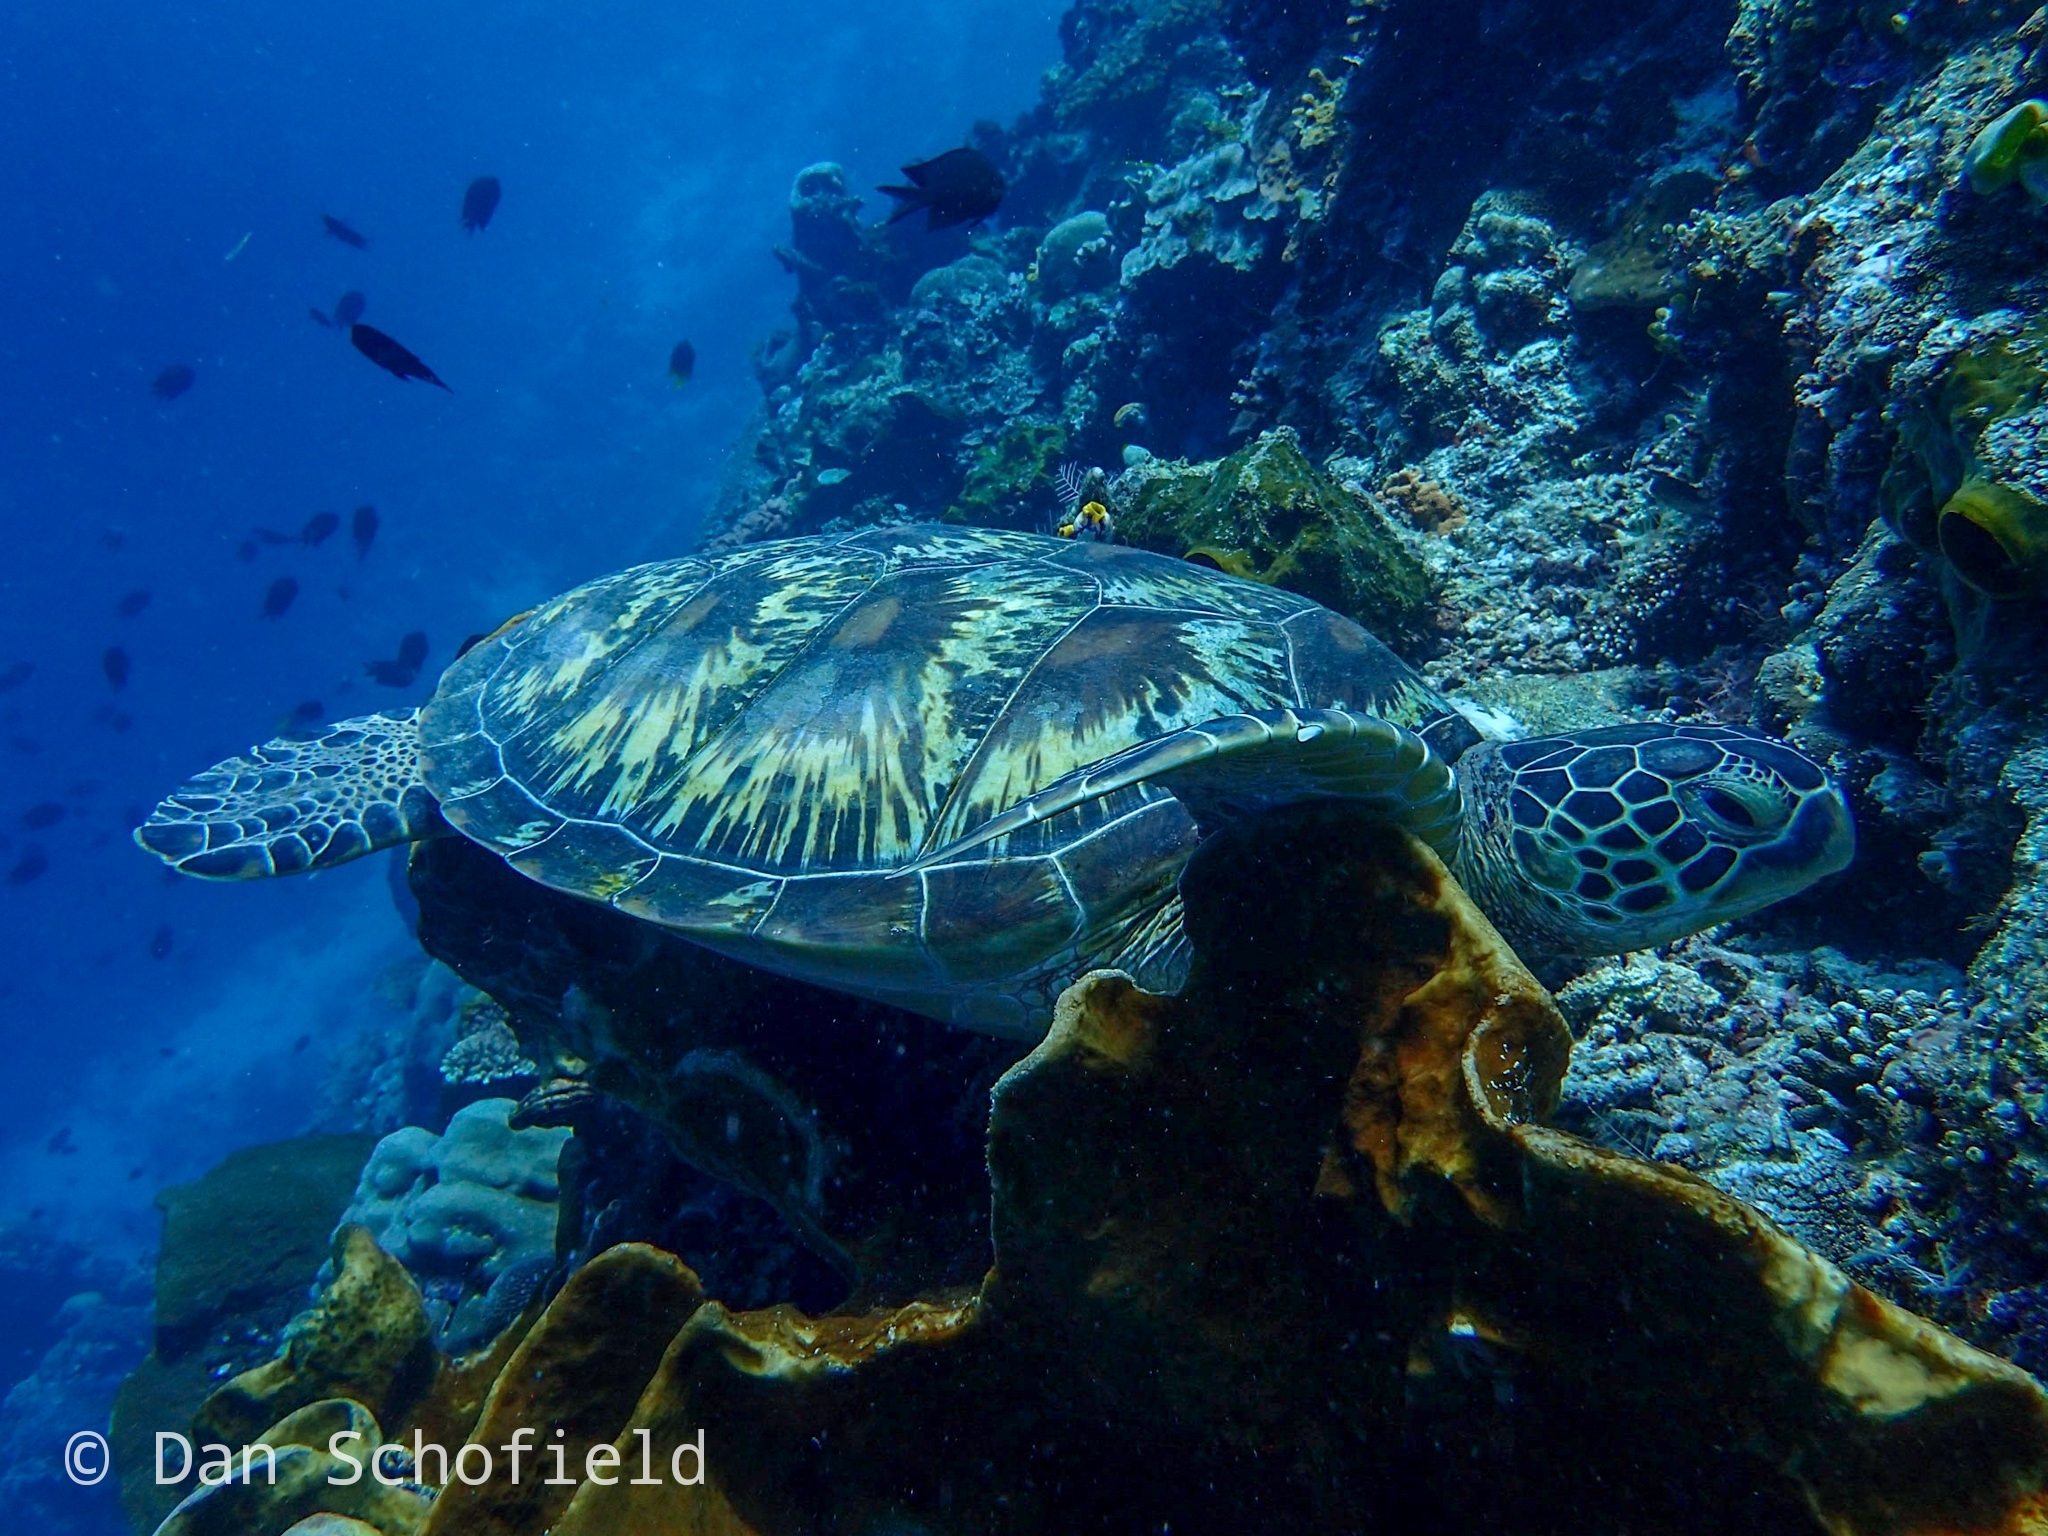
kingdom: Animalia
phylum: Chordata
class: Testudines
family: Cheloniidae
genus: Chelonia
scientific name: Chelonia mydas
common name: Green turtle
